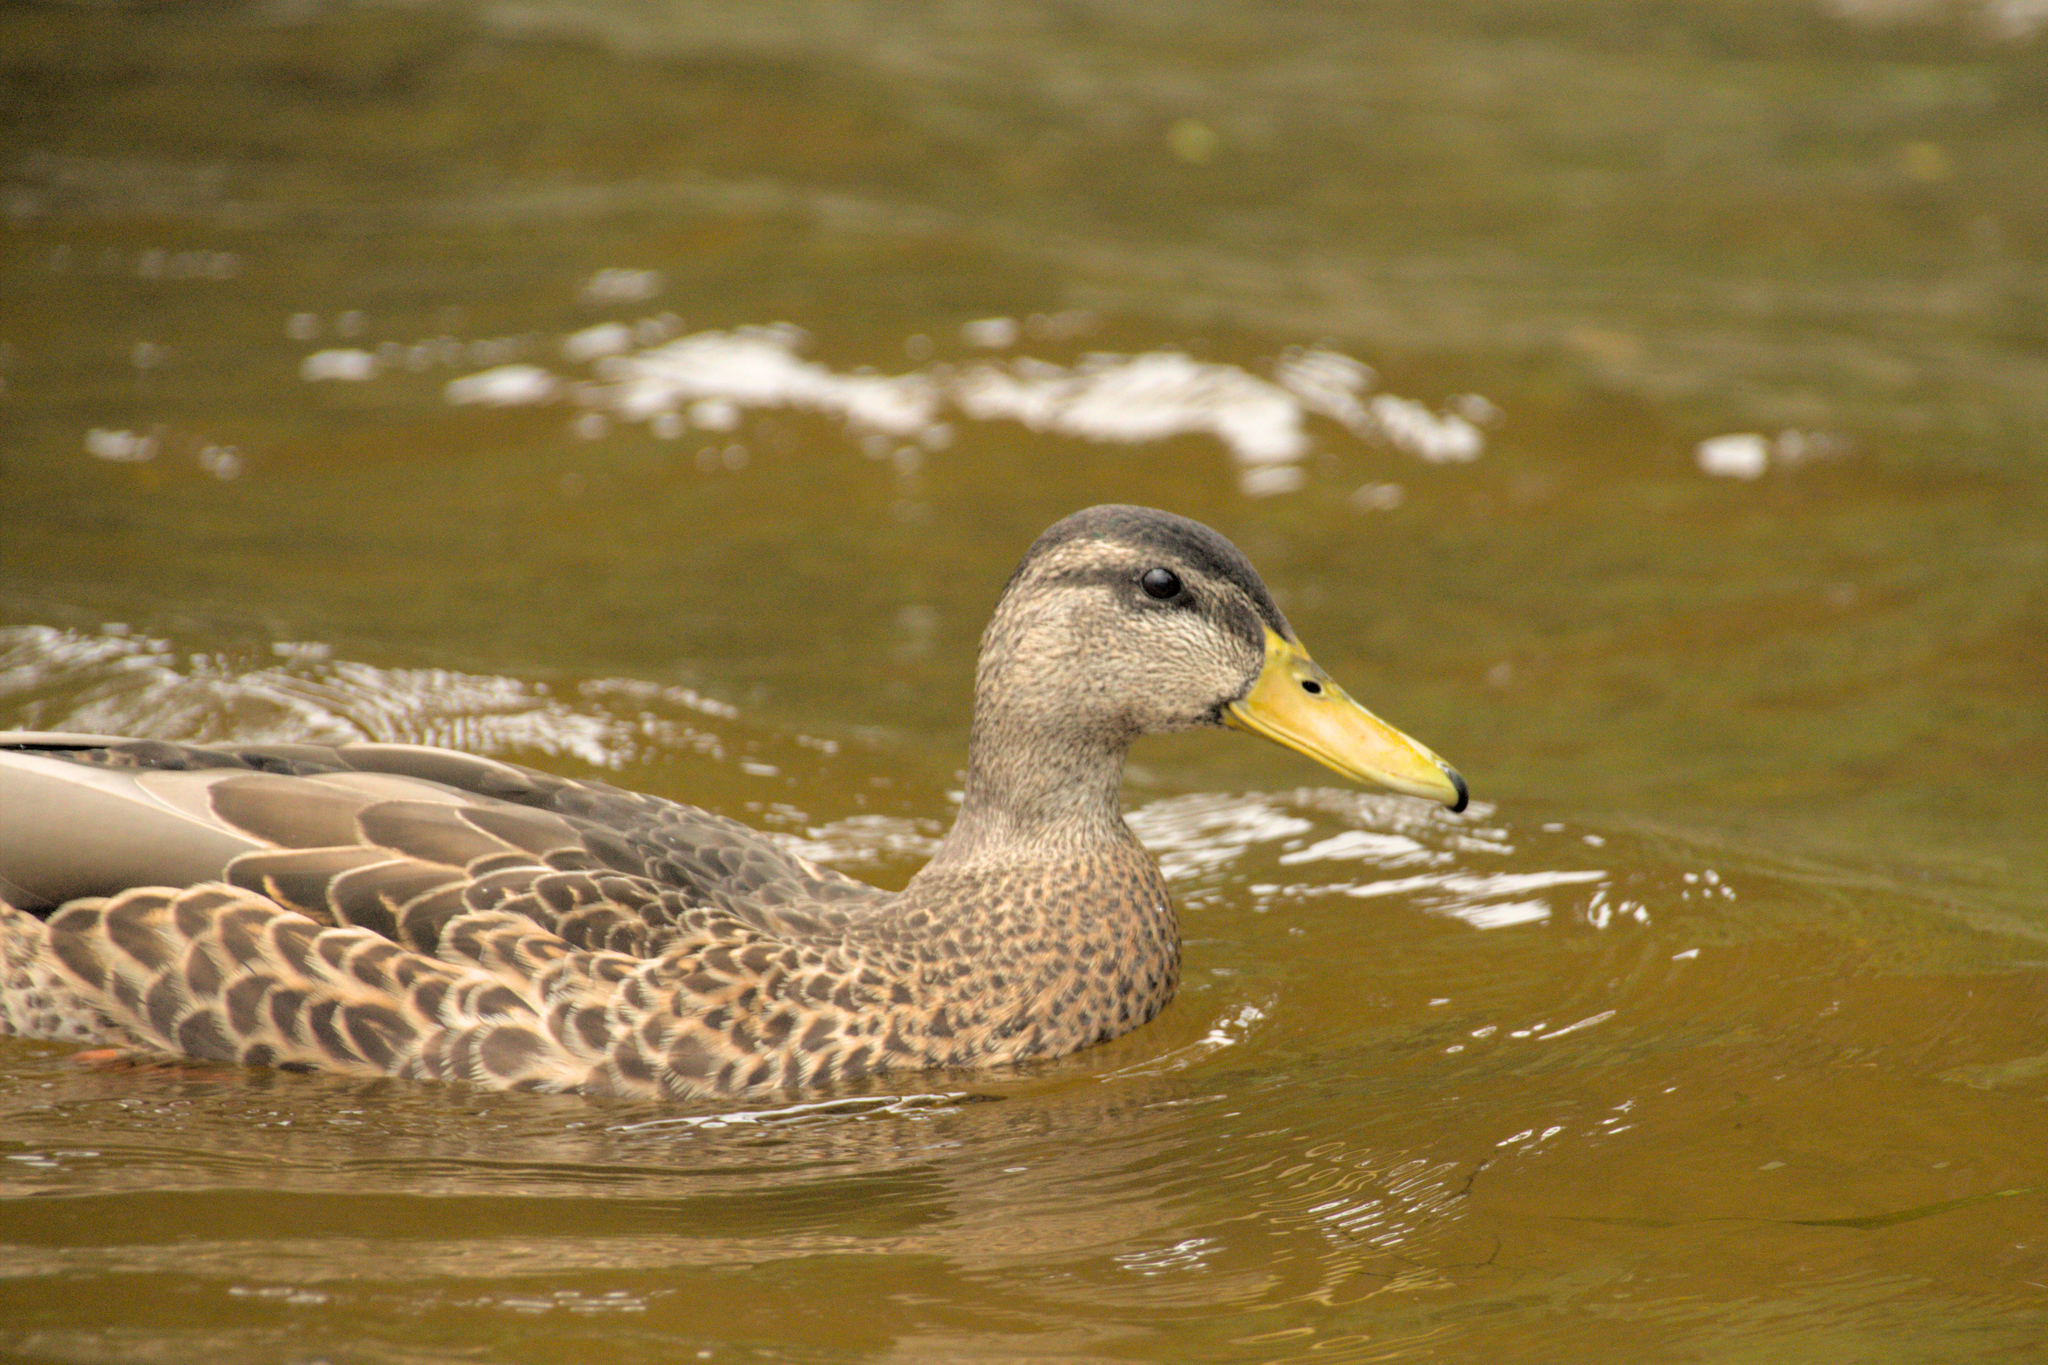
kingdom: Animalia
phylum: Chordata
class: Aves
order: Anseriformes
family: Anatidae
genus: Anas
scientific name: Anas platyrhynchos
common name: Mallard
